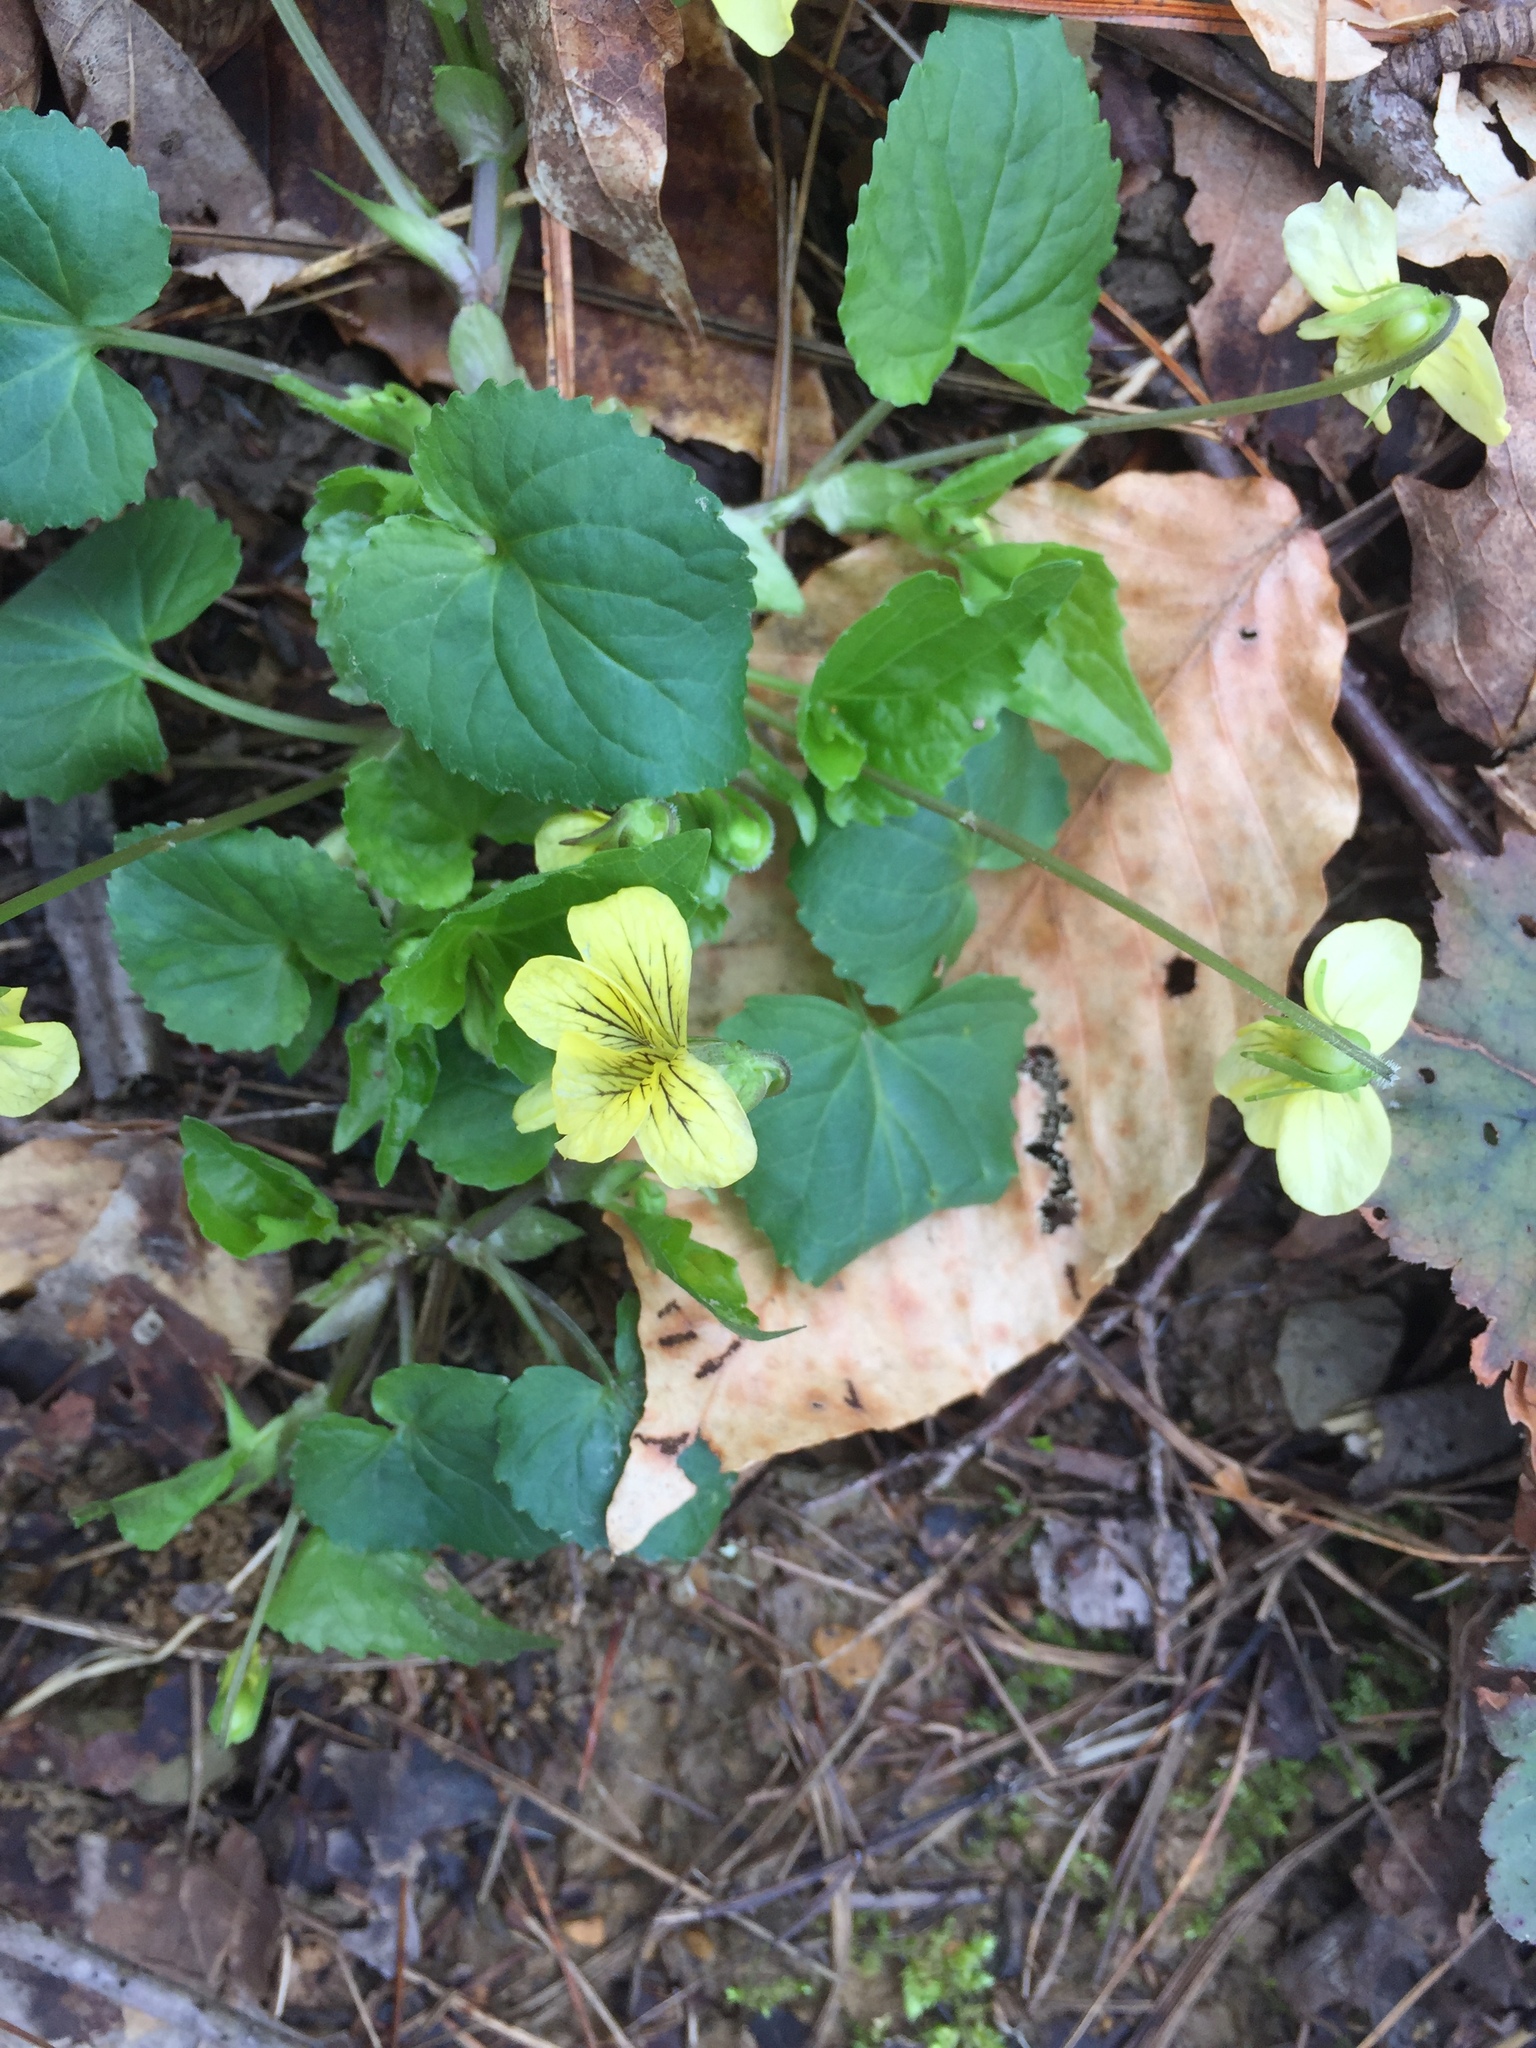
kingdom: Plantae
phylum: Tracheophyta
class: Magnoliopsida
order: Malpighiales
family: Violaceae
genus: Viola
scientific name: Viola eriocarpa
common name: Smooth yellow violet
